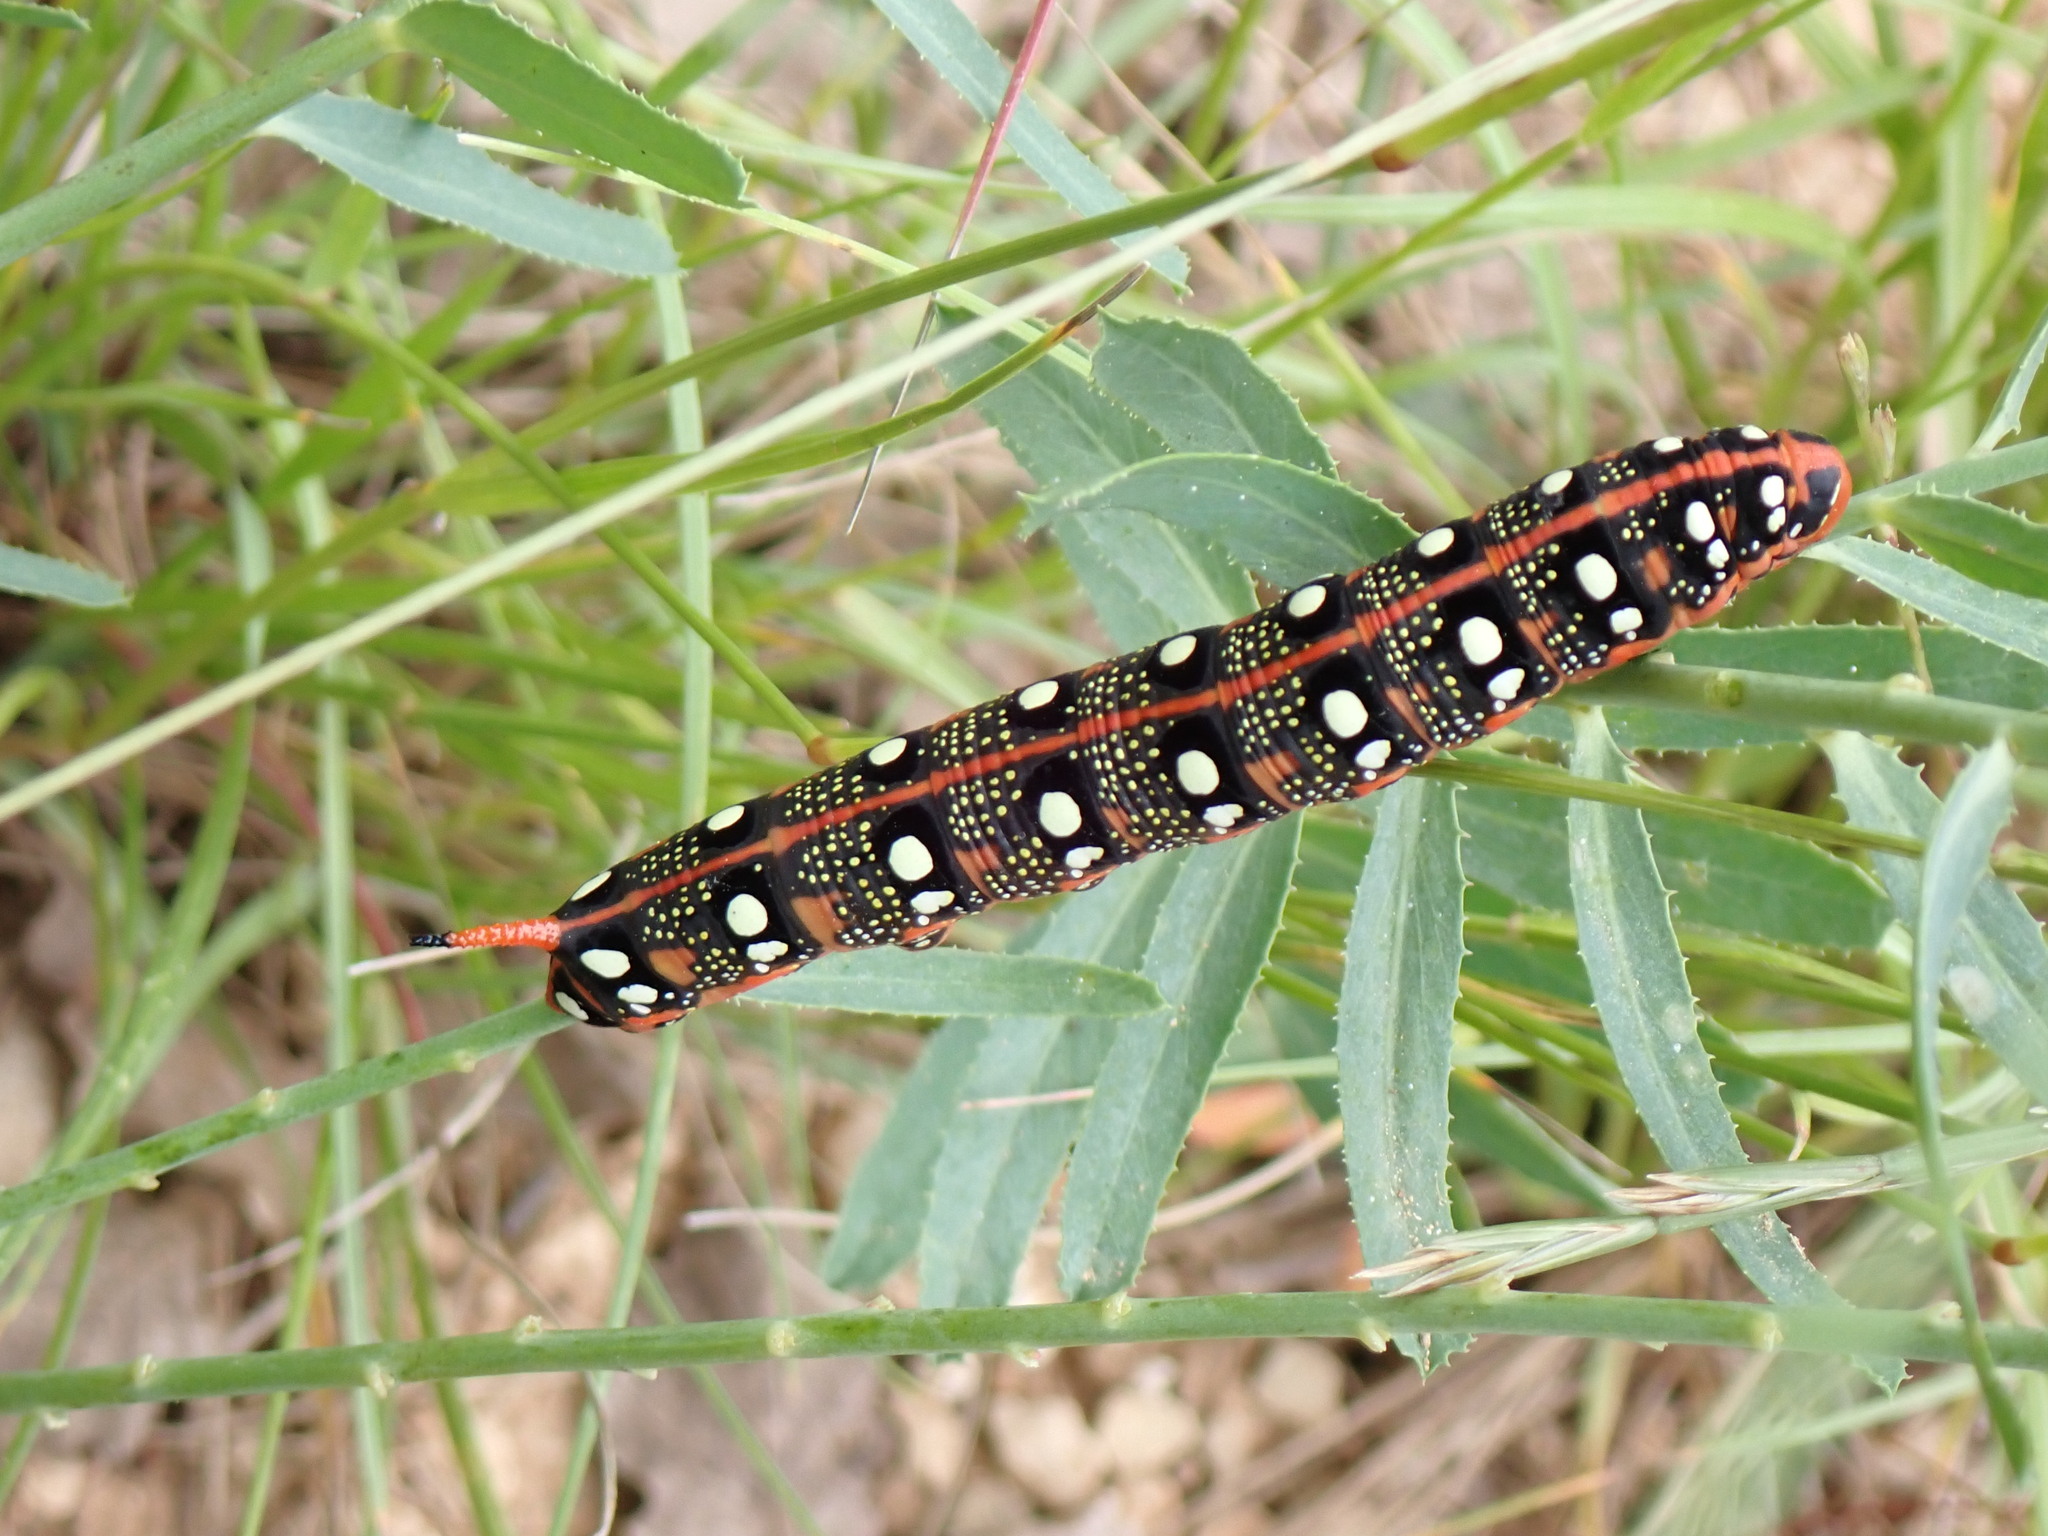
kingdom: Animalia
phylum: Arthropoda
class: Insecta
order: Lepidoptera
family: Sphingidae
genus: Hyles
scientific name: Hyles euphorbiae
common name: Spurge hawk-moth
